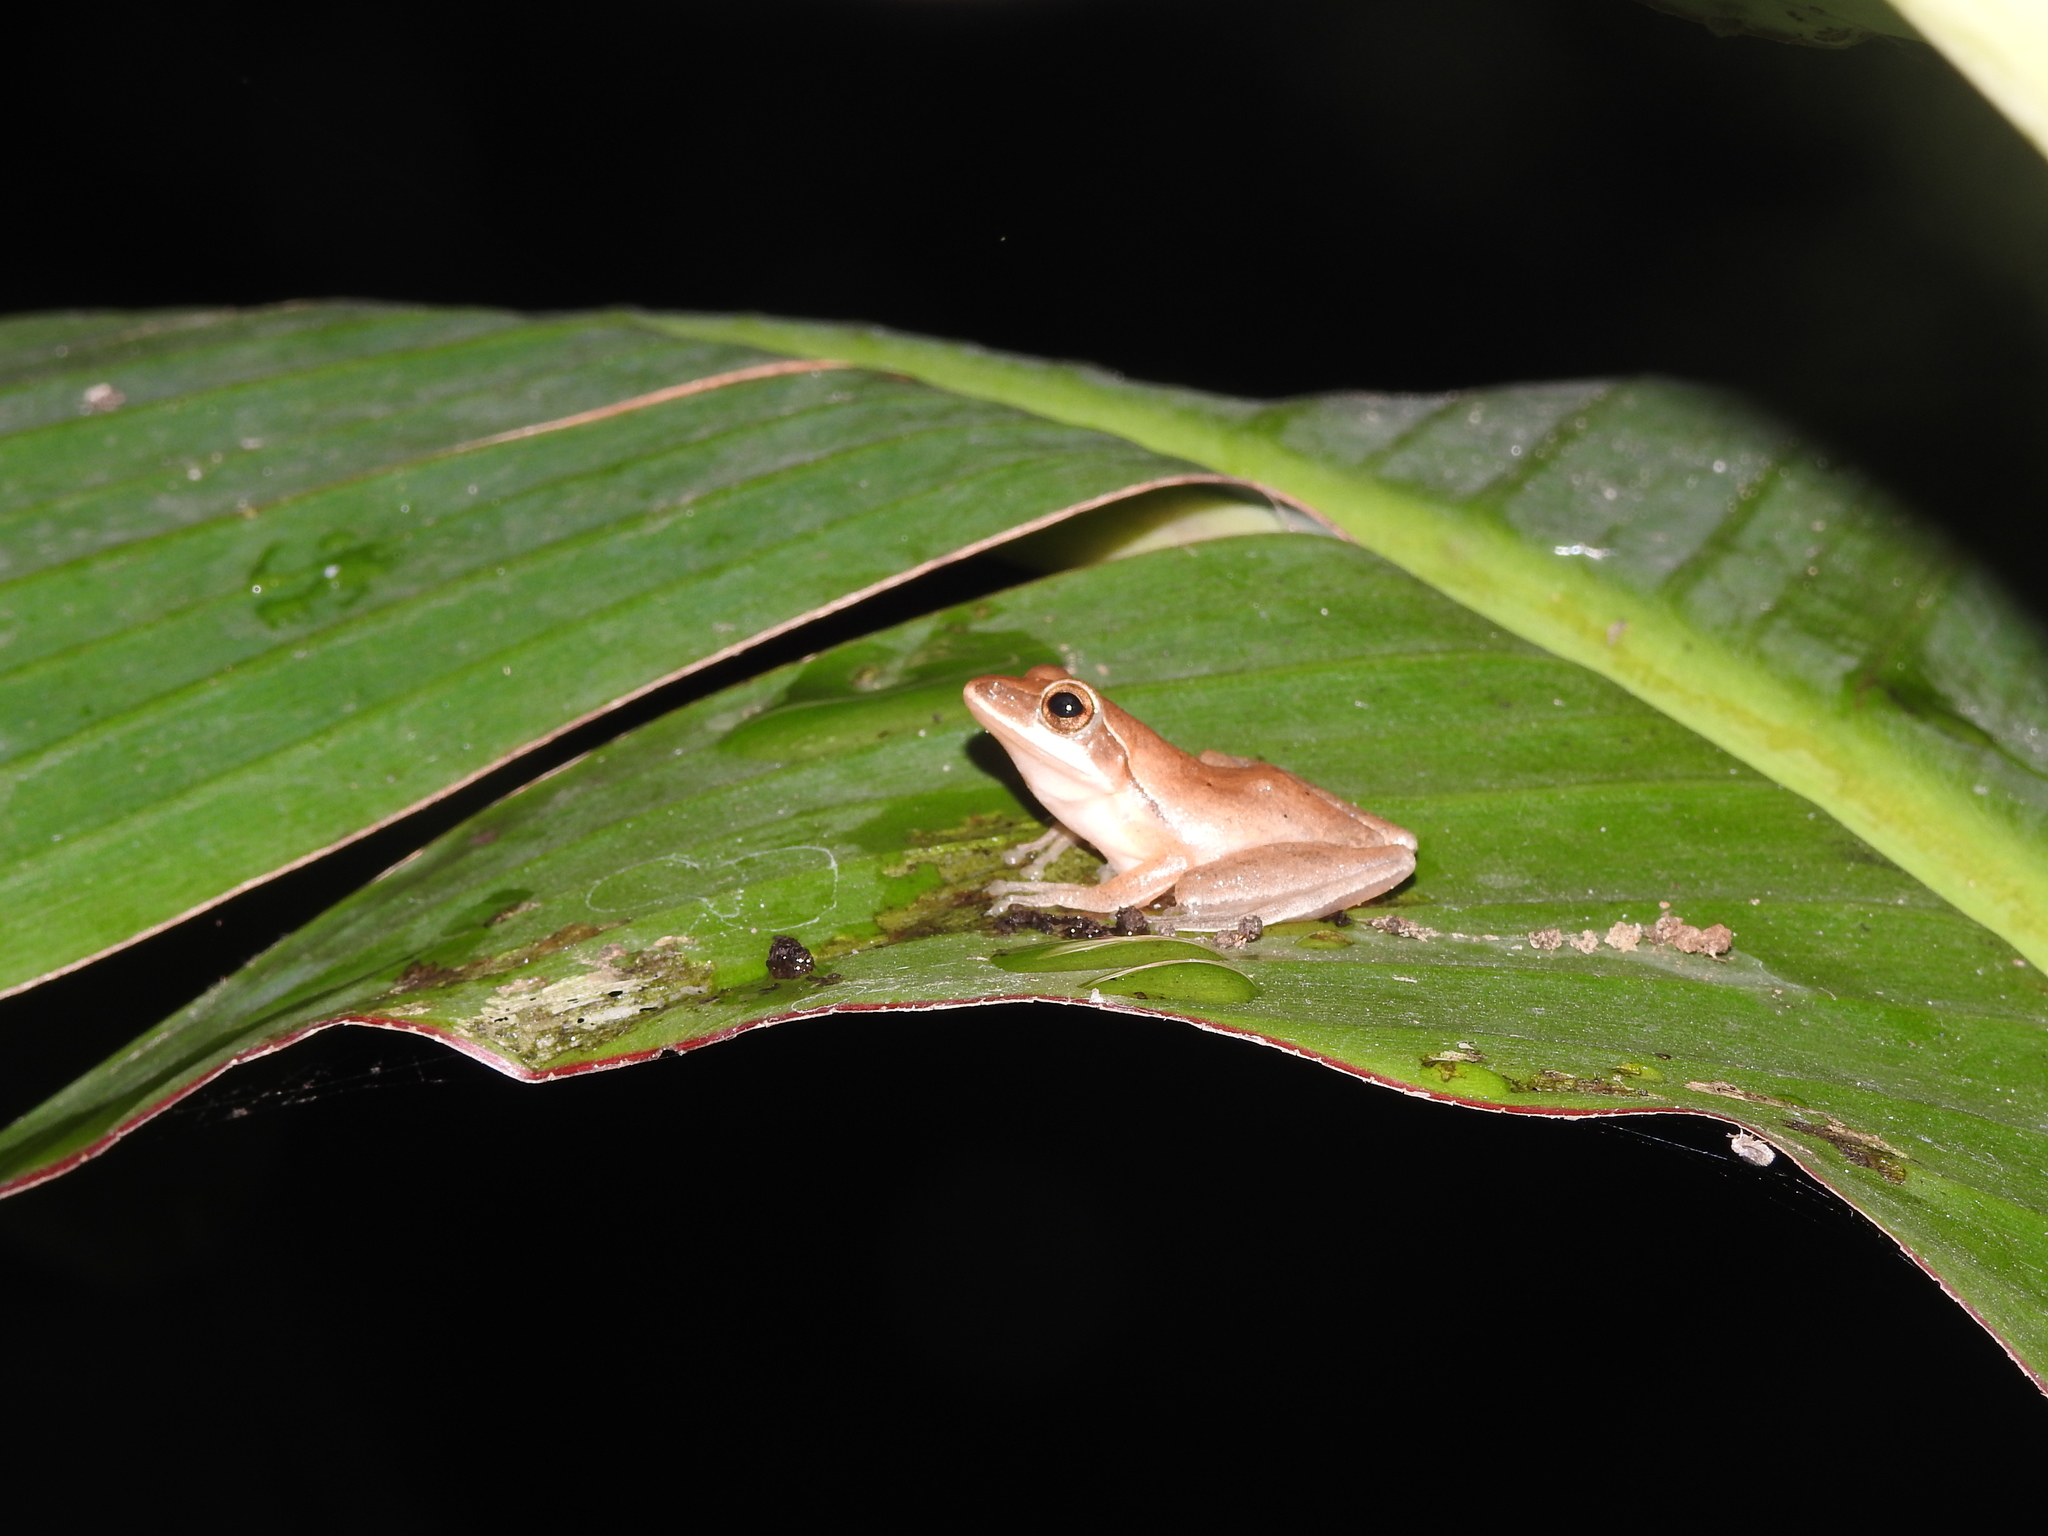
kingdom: Animalia
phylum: Chordata
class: Amphibia
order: Anura
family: Rhacophoridae
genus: Polypedates
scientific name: Polypedates maculatus
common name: Himalayan tree frog
